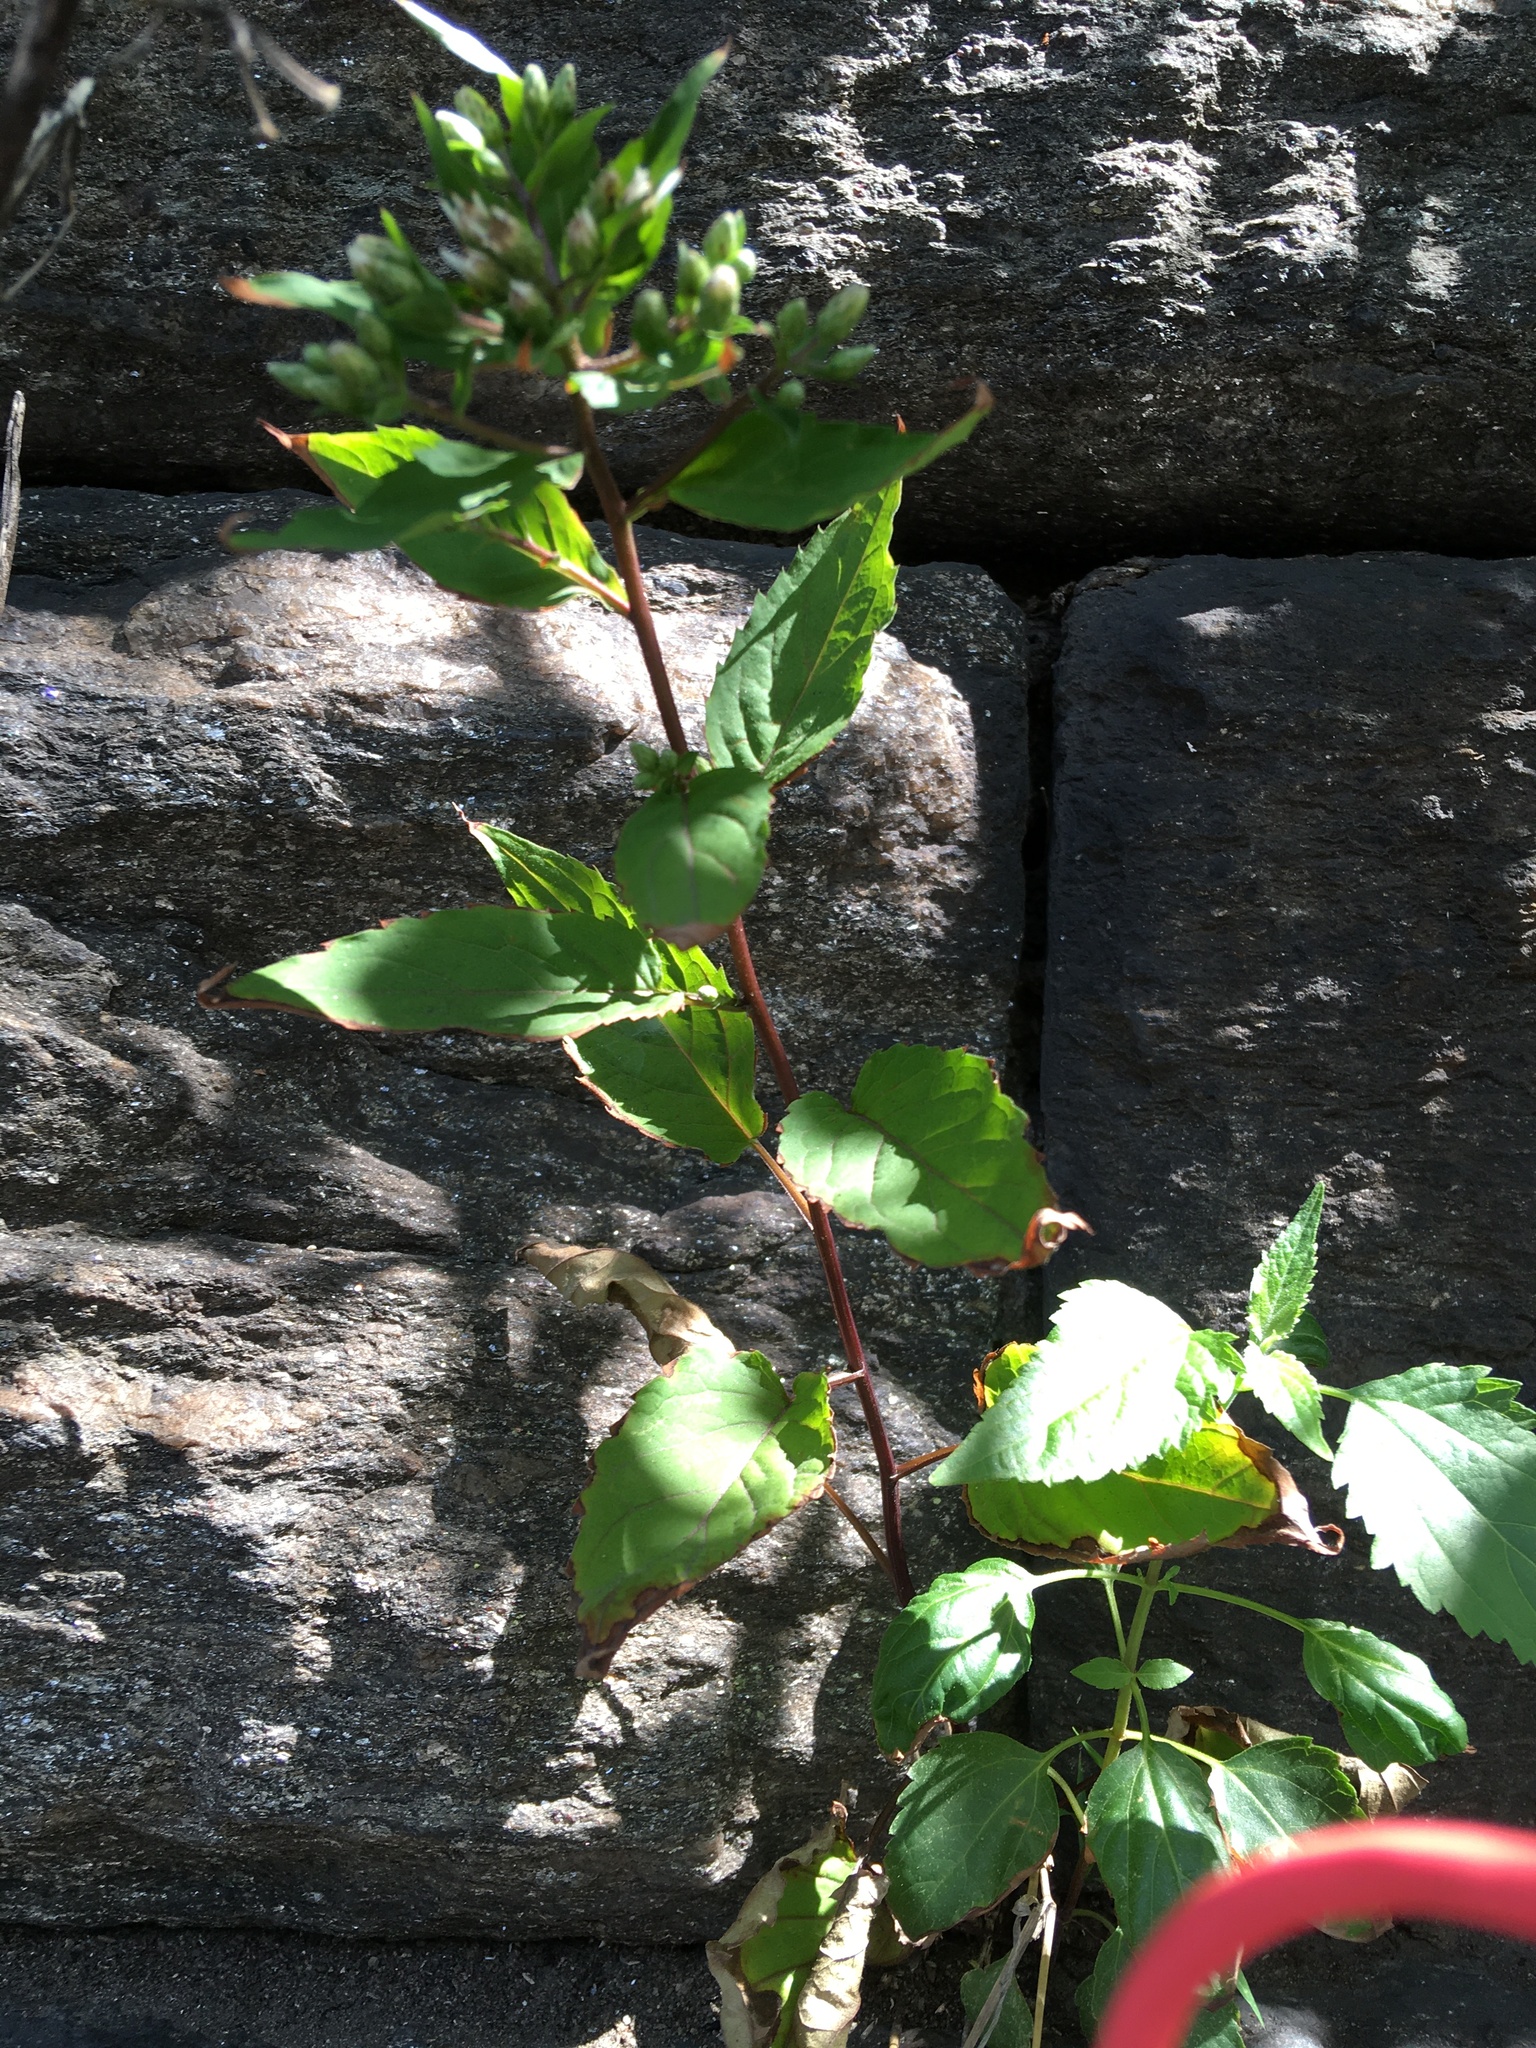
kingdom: Plantae
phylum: Tracheophyta
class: Magnoliopsida
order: Asterales
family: Asteraceae
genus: Eurybia
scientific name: Eurybia divaricata
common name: White wood aster
